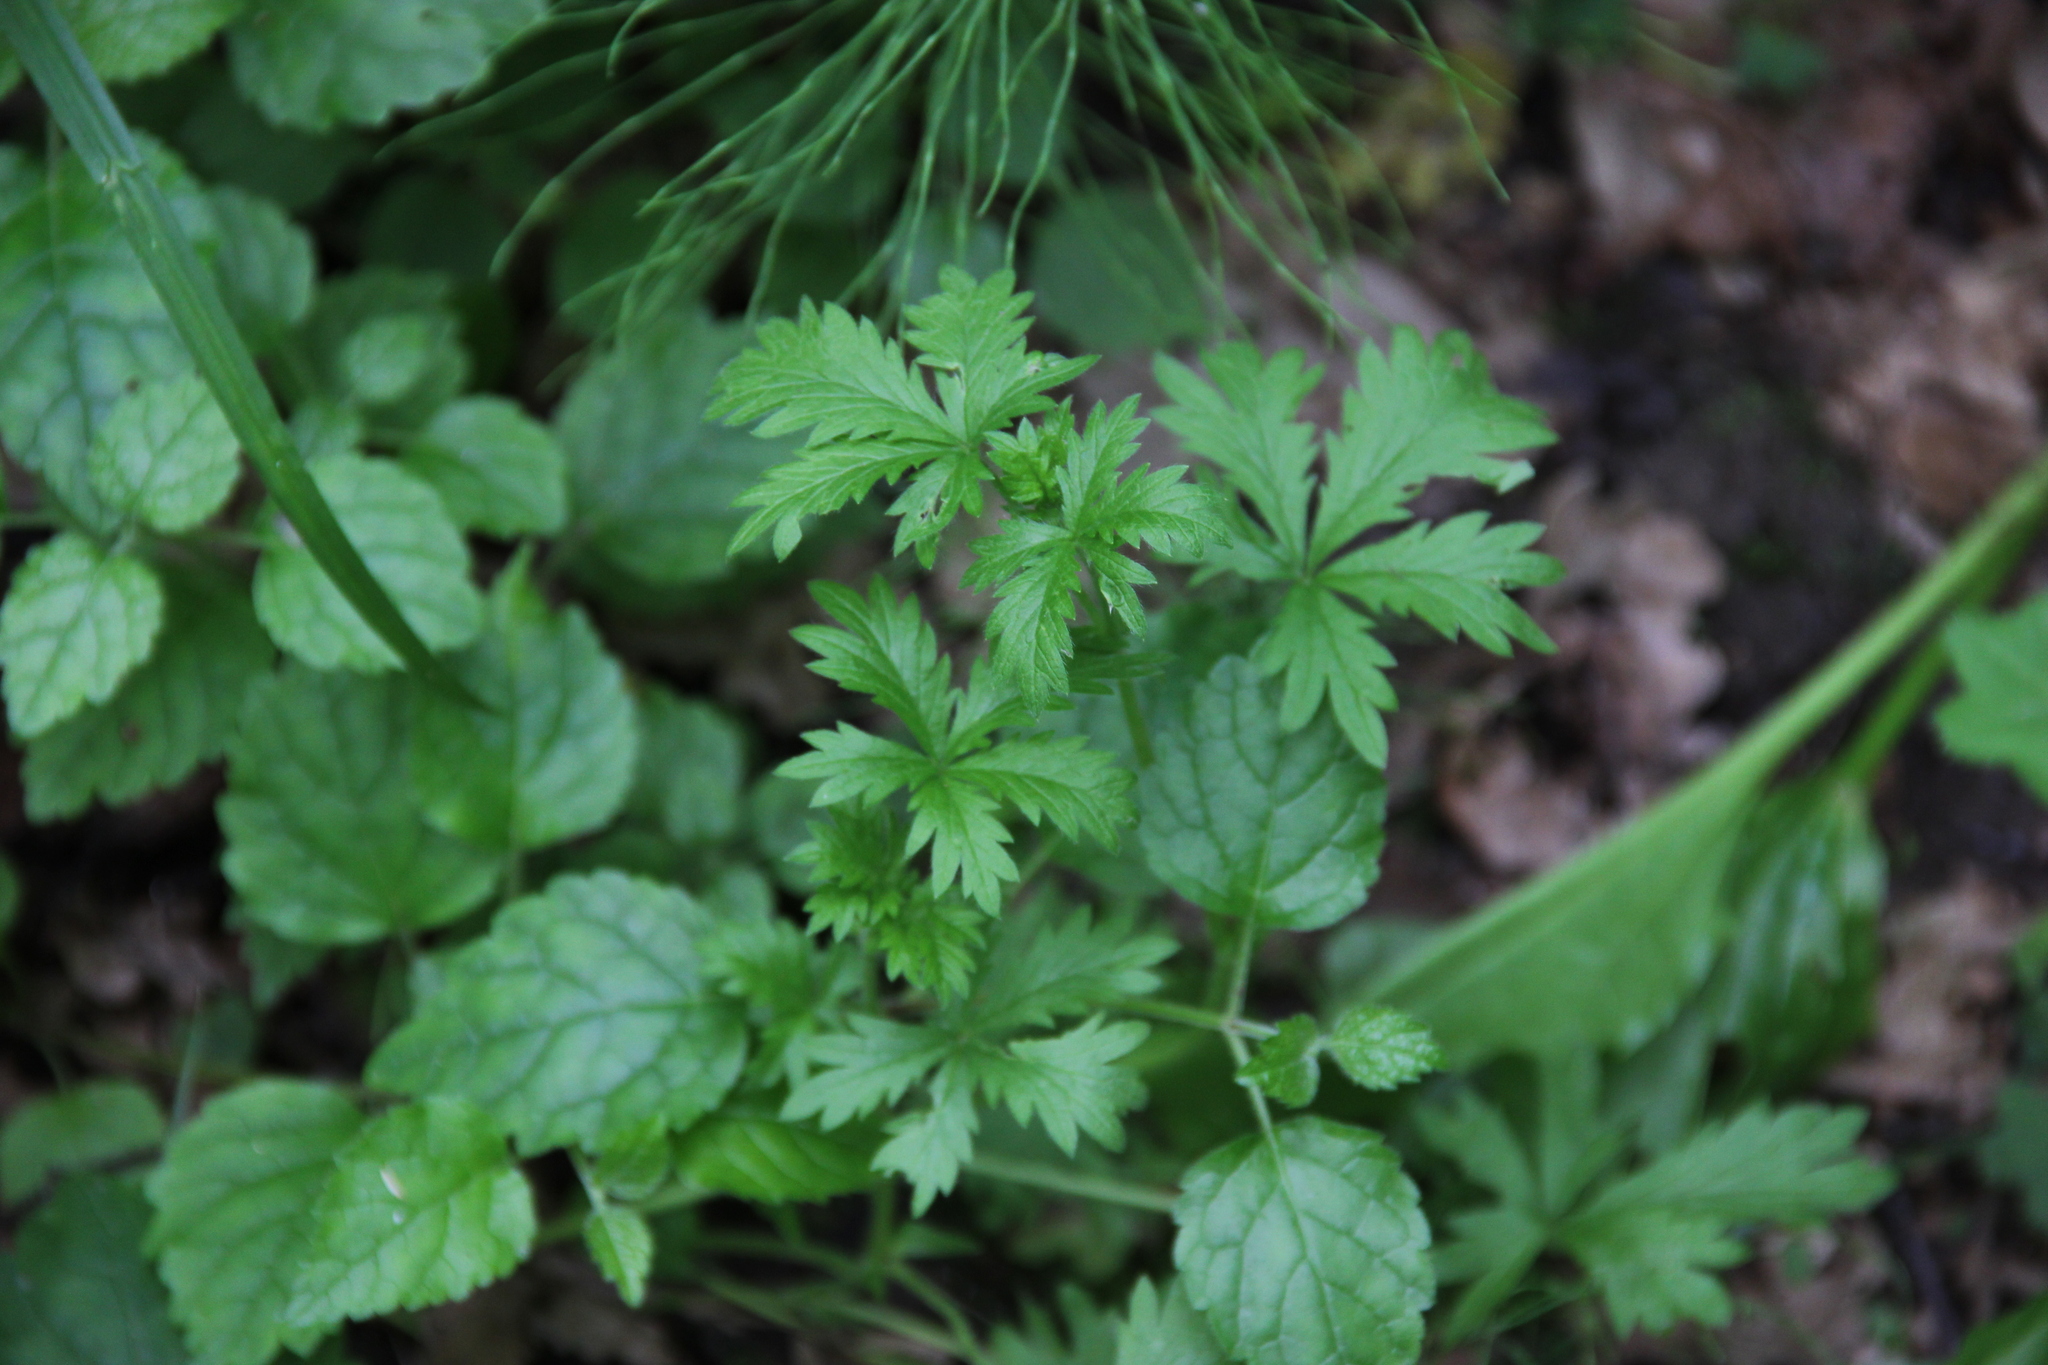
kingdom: Plantae
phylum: Tracheophyta
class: Magnoliopsida
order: Rosales
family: Rosaceae
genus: Potentilla
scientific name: Potentilla intermedia
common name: Downy cinquefoil
